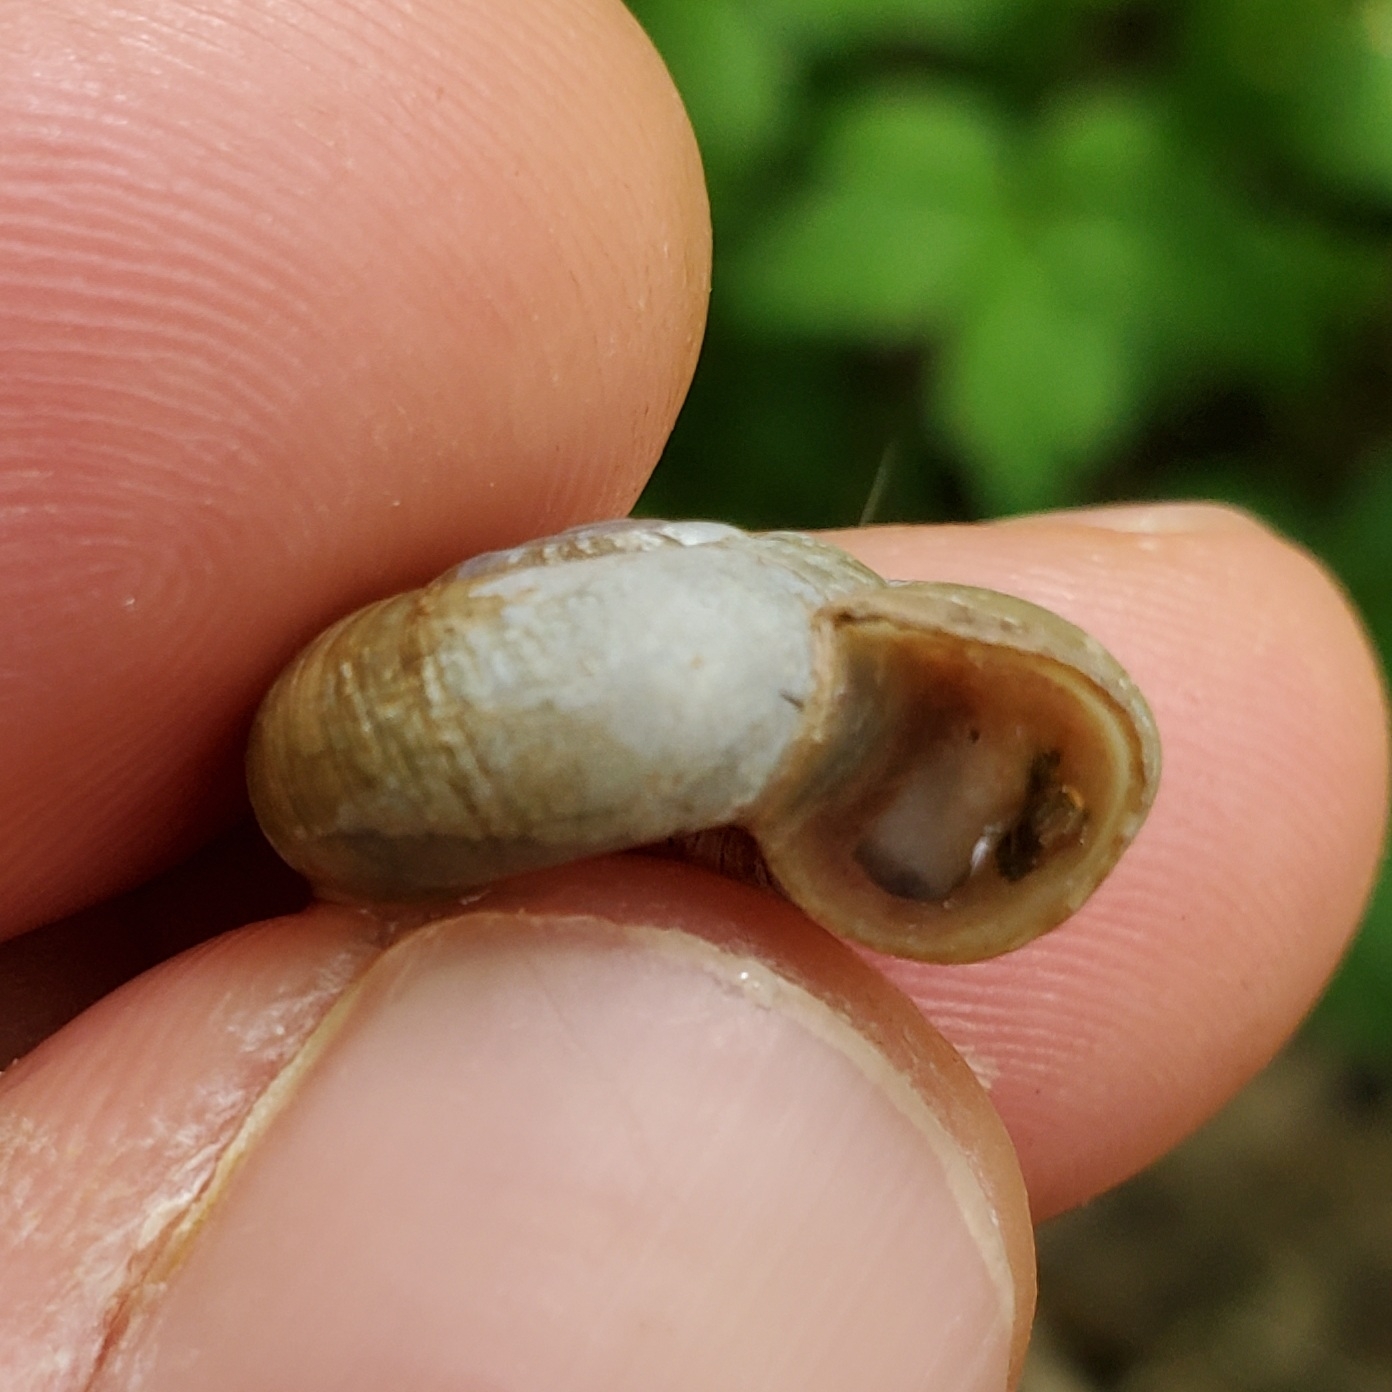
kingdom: Animalia
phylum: Mollusca
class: Gastropoda
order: Stylommatophora
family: Haplotrematidae
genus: Haplotrema
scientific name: Haplotrema concavum
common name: Gray-foot lancetooth
